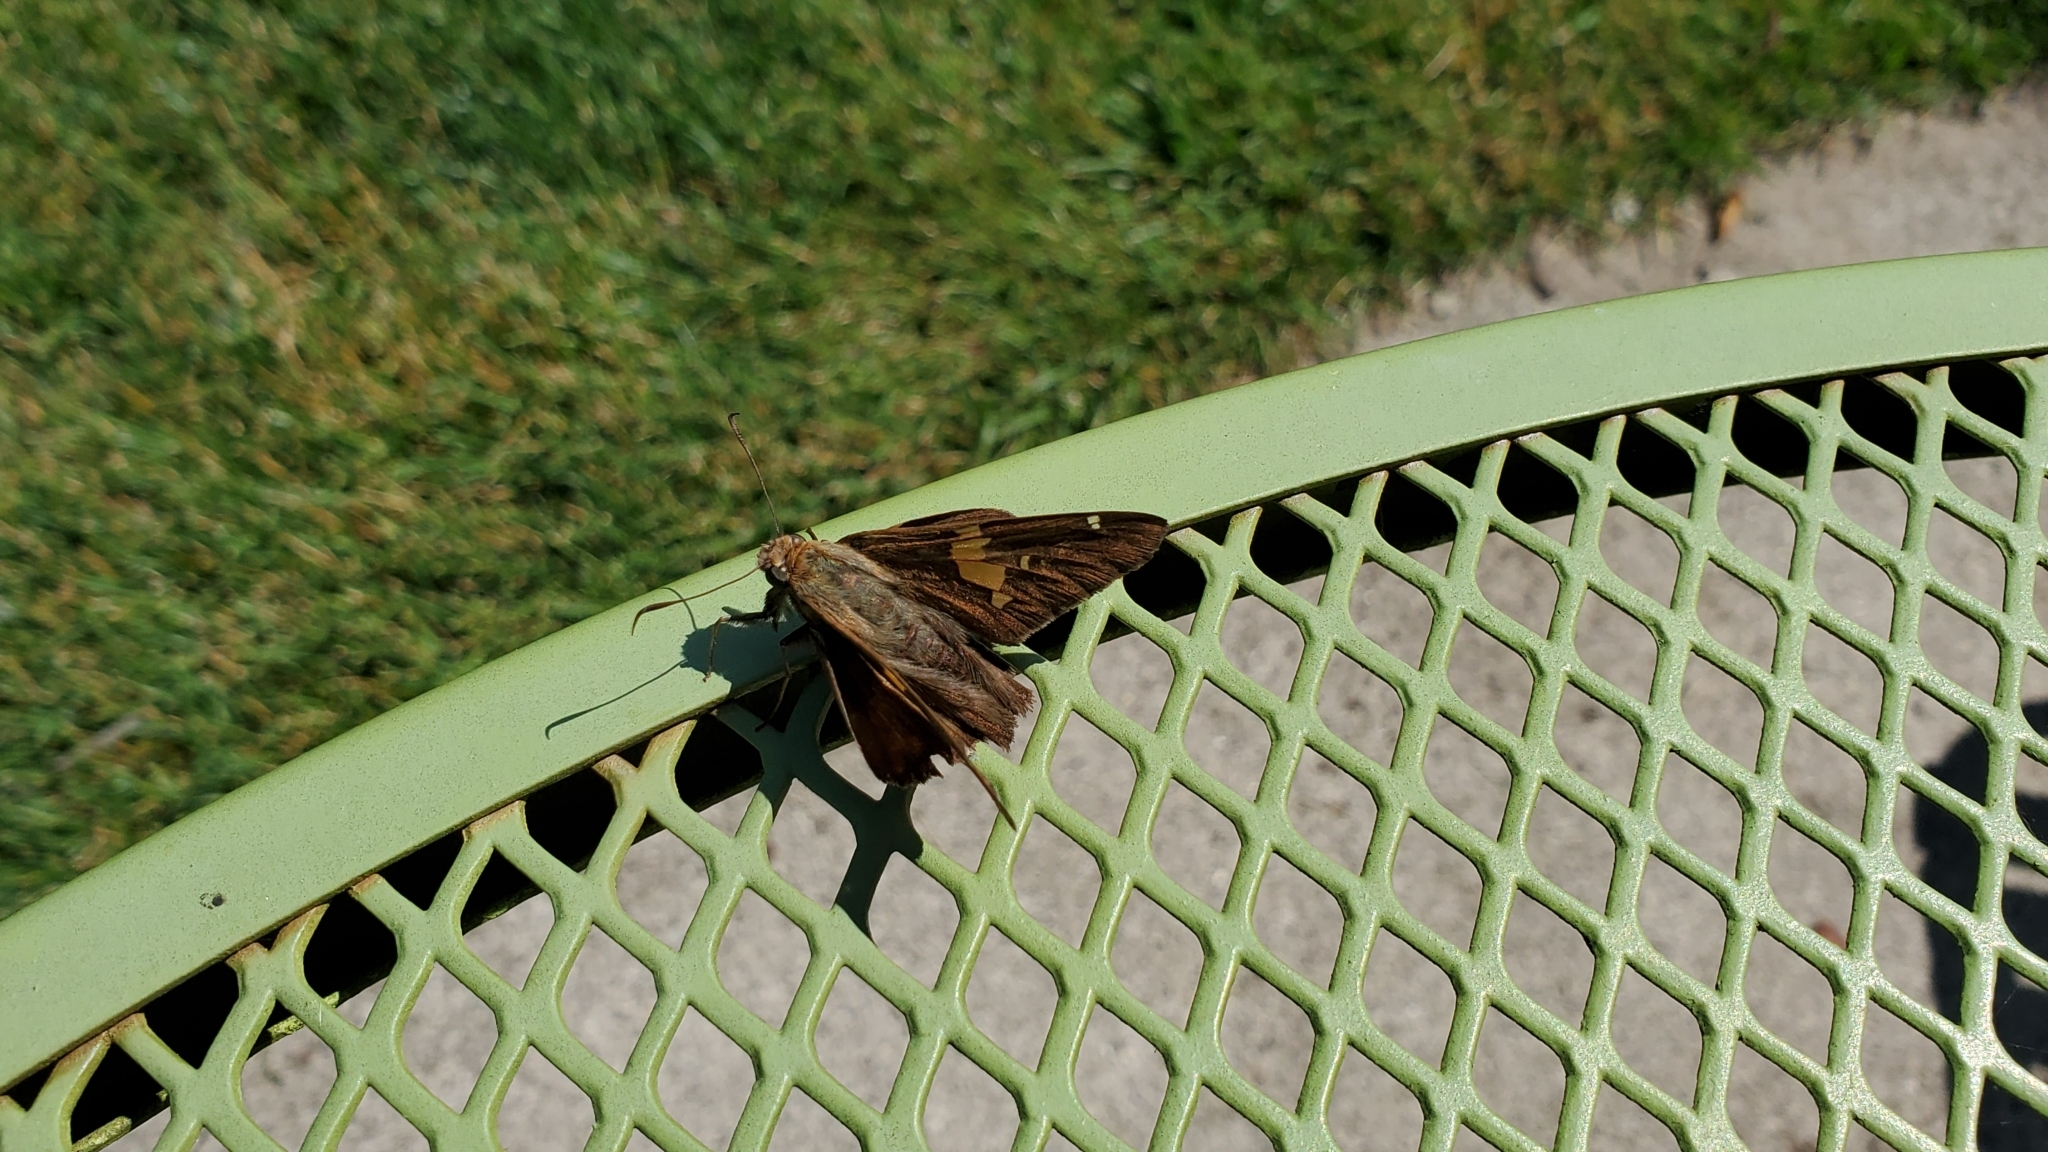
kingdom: Animalia
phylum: Arthropoda
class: Insecta
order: Lepidoptera
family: Hesperiidae
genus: Epargyreus
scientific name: Epargyreus clarus
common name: Silver-spotted skipper
